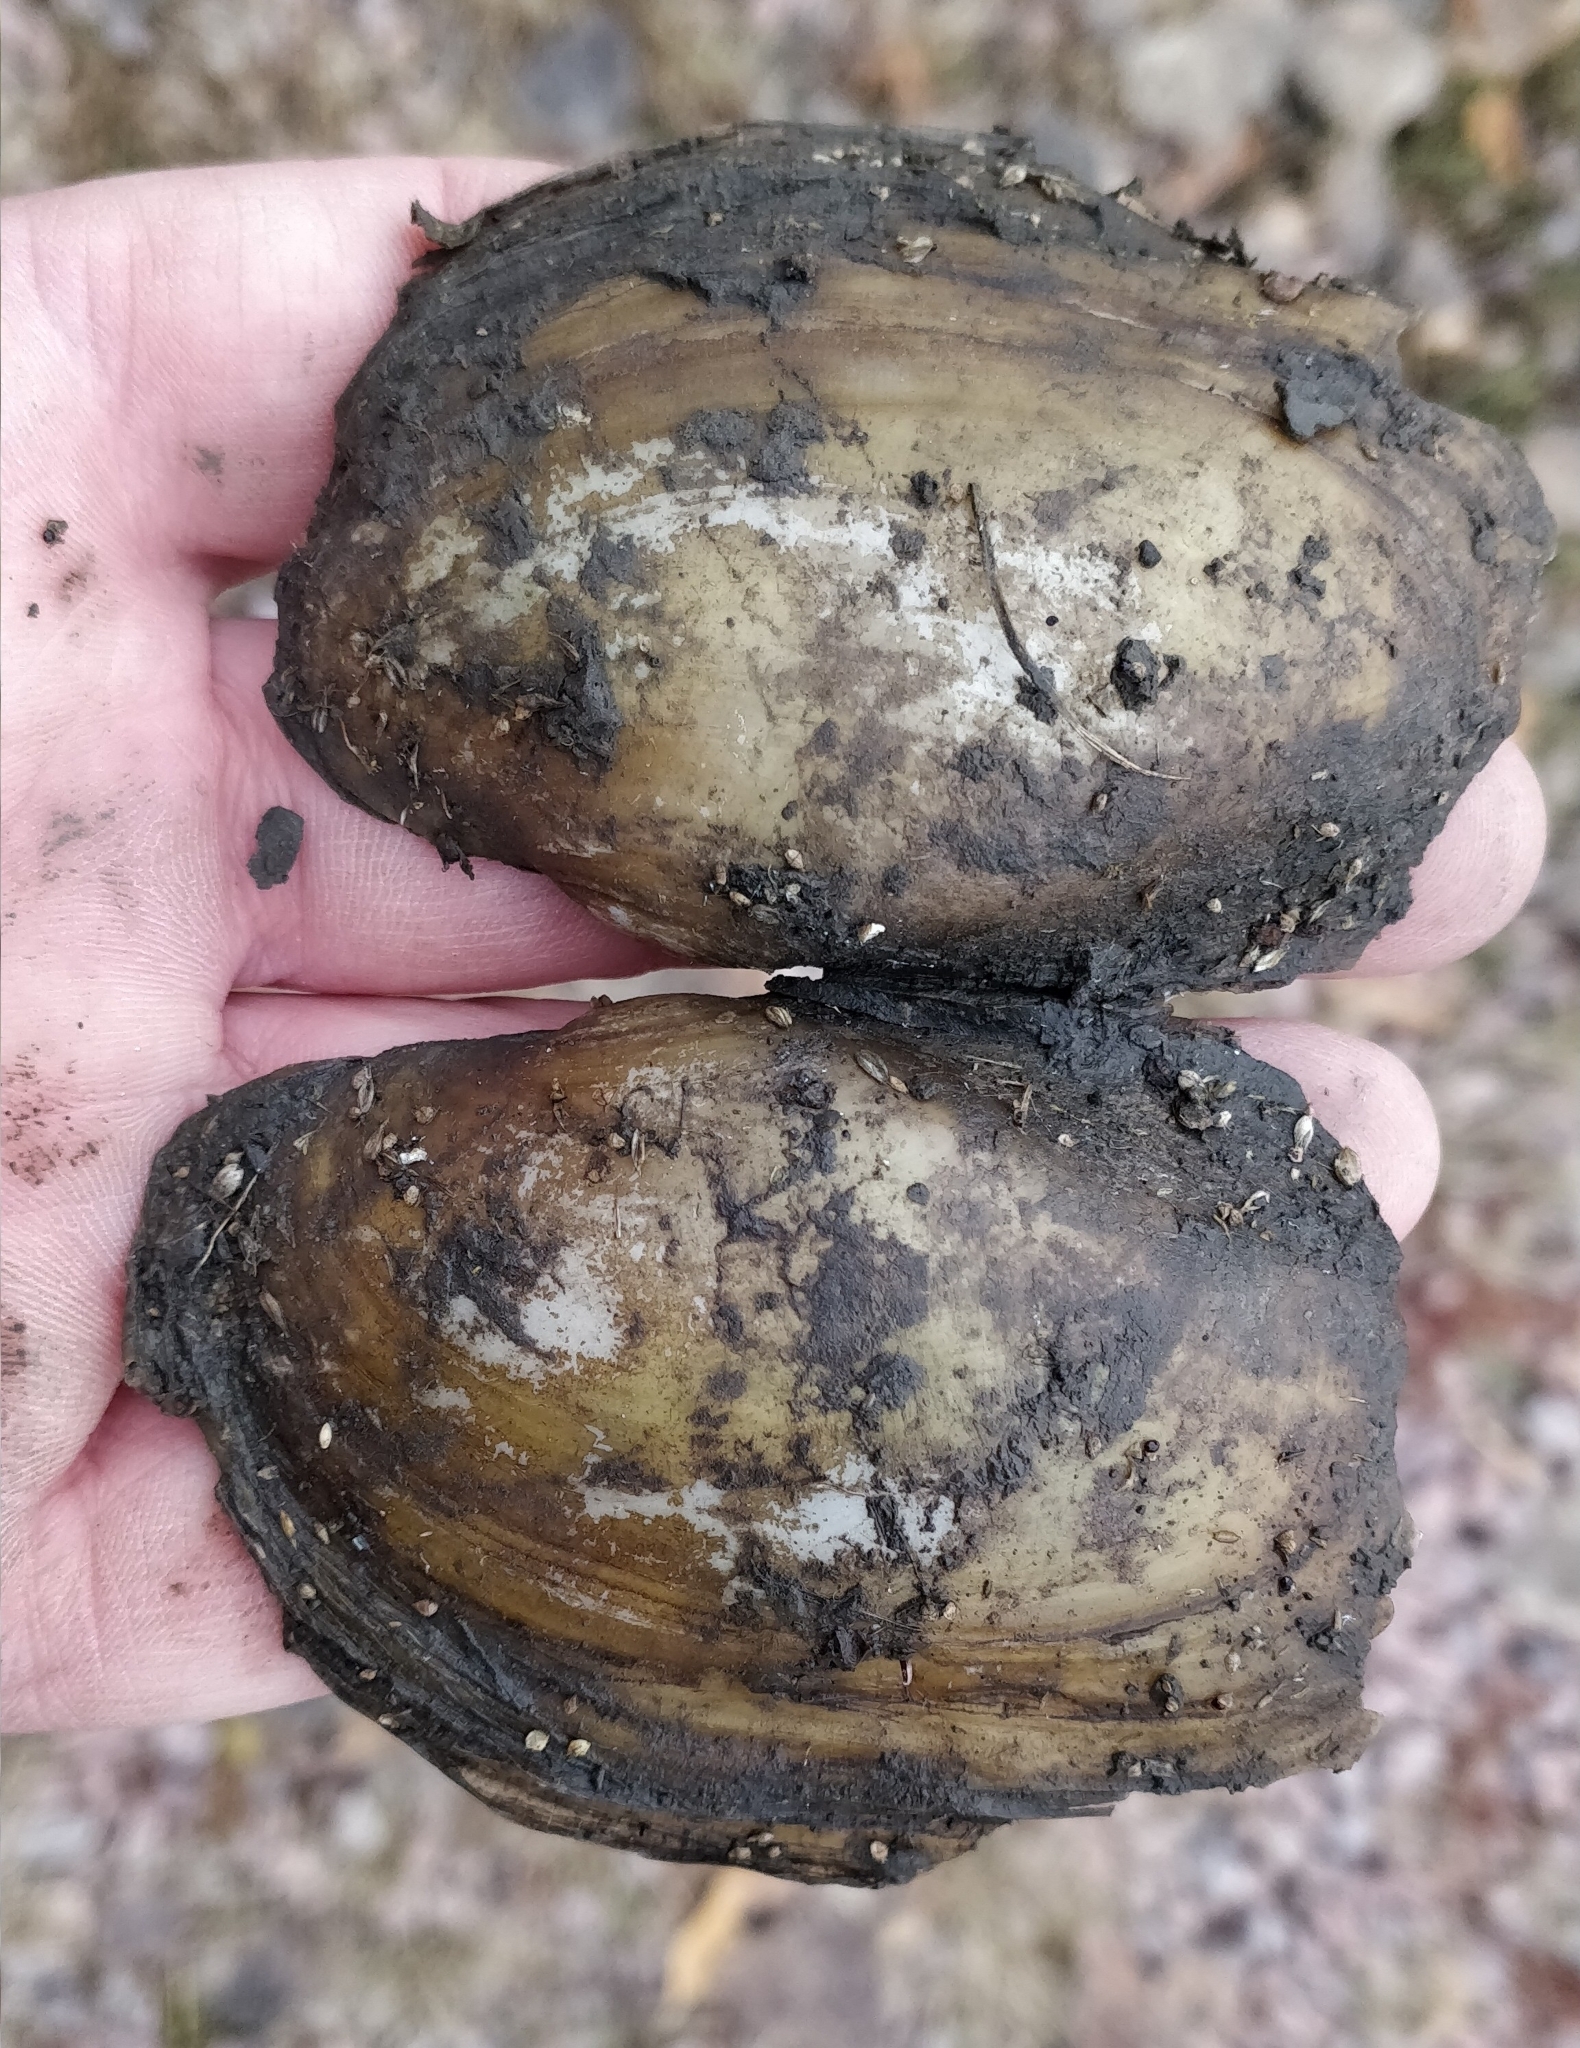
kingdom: Animalia
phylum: Mollusca
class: Bivalvia
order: Unionida
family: Unionidae
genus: Potamilus
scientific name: Potamilus fragilis
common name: Fragile papershell
